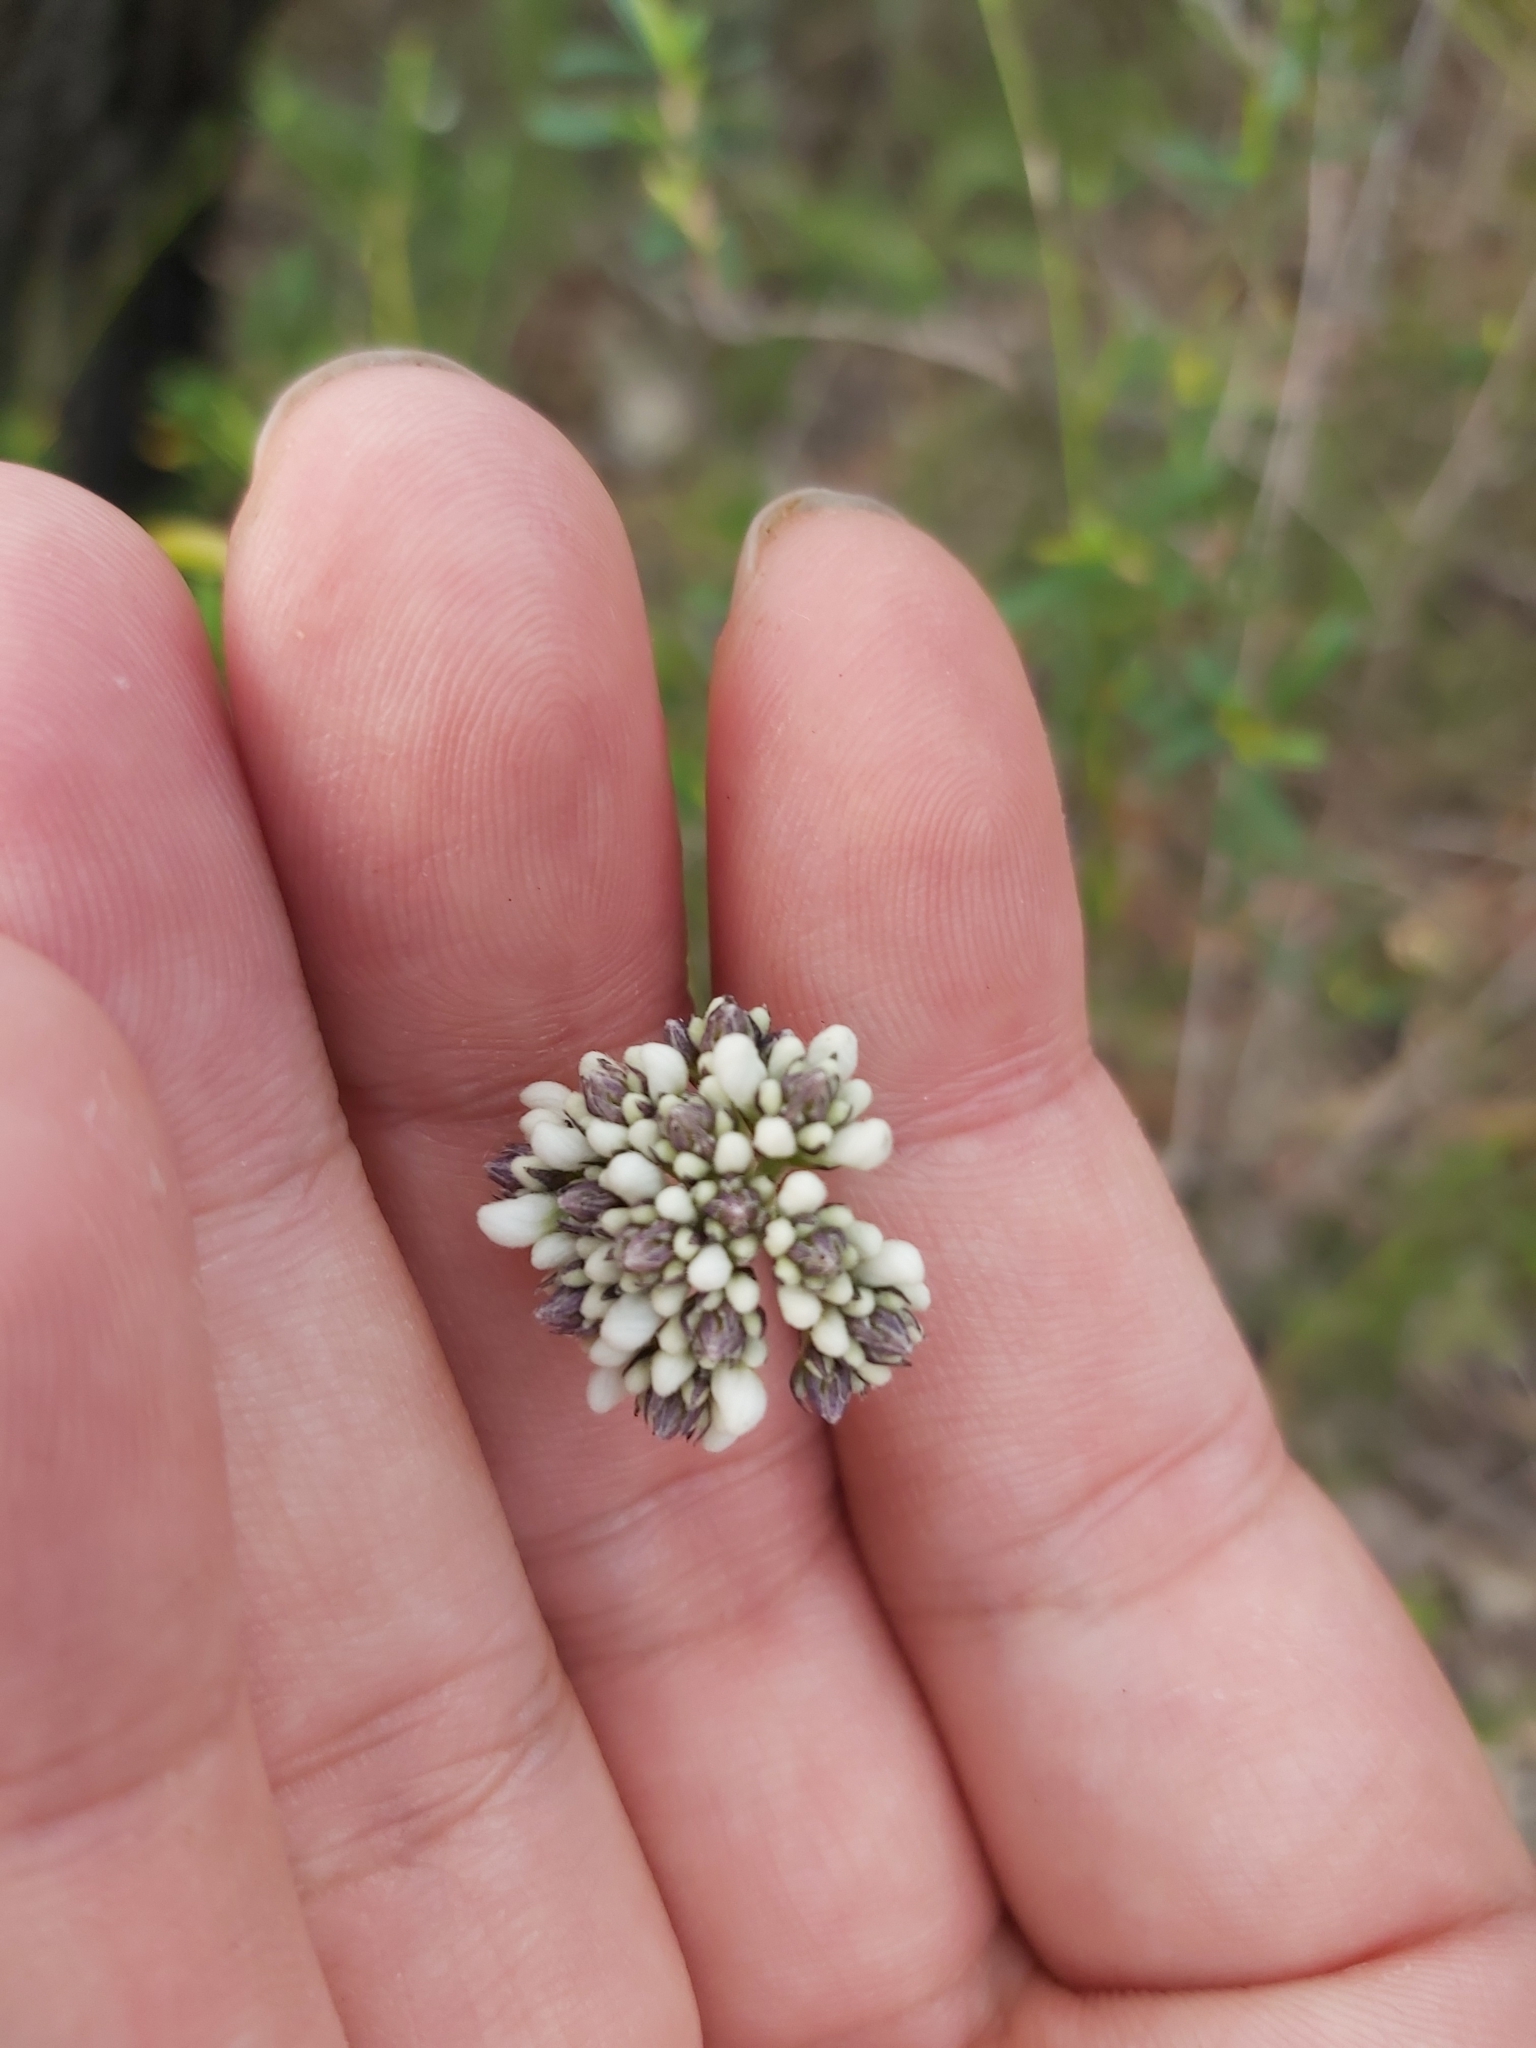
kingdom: Plantae
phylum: Tracheophyta
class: Magnoliopsida
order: Proteales
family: Proteaceae
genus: Conospermum
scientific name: Conospermum longifolium
